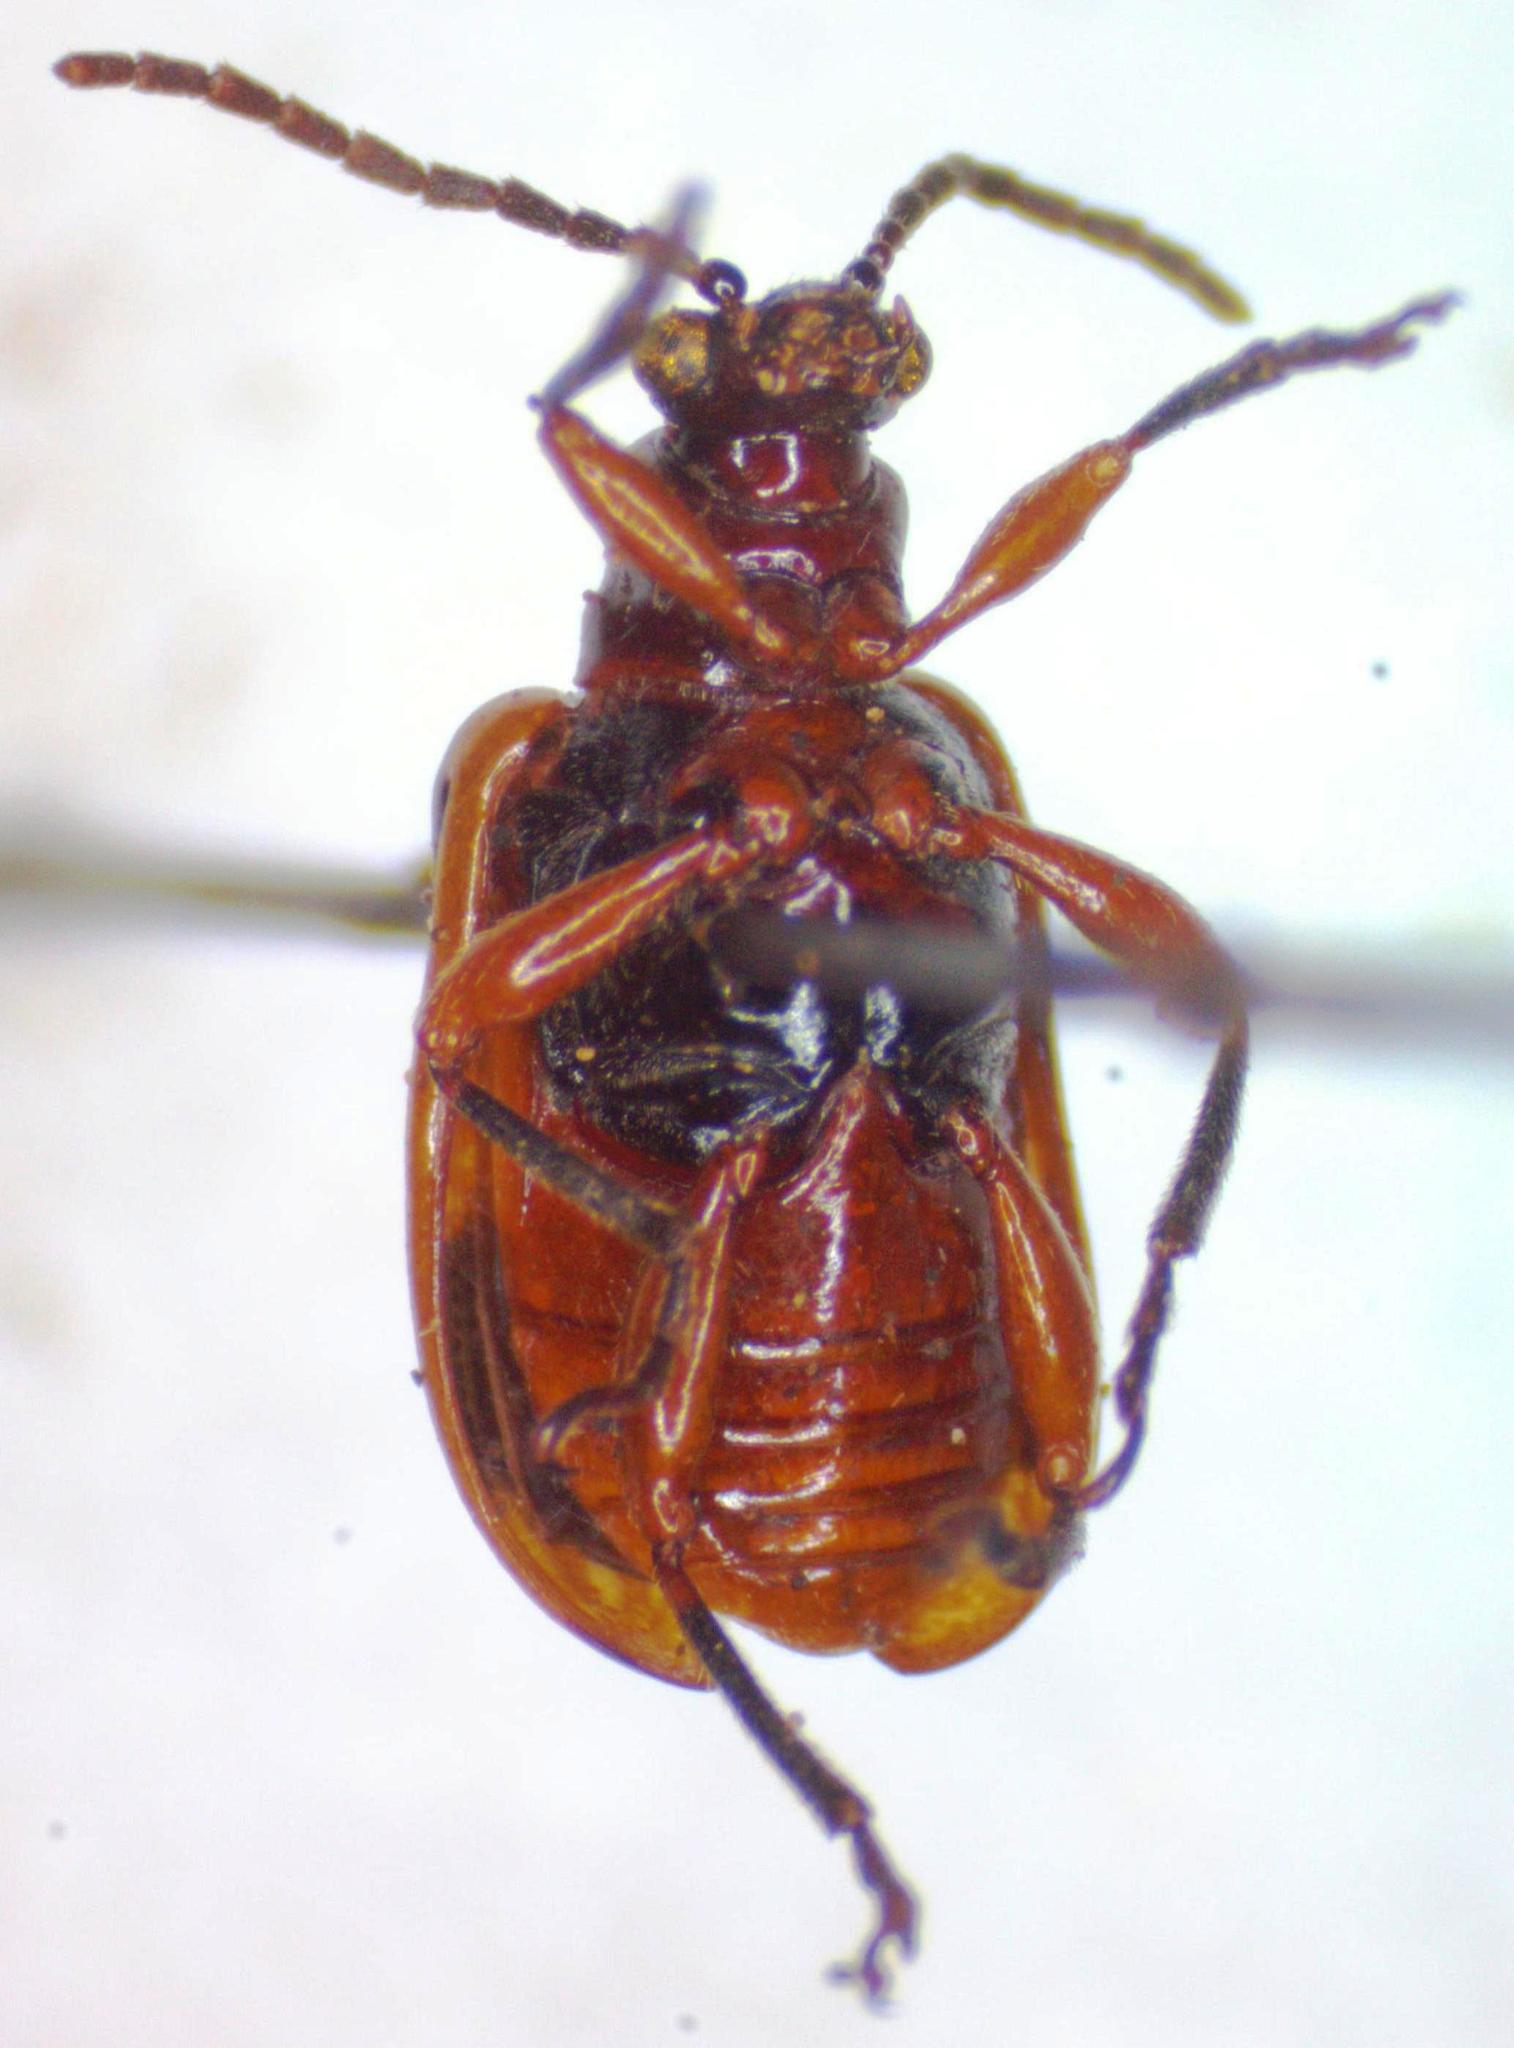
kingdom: Animalia
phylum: Arthropoda
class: Insecta
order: Coleoptera
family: Chrysomelidae
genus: Lema
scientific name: Lema
